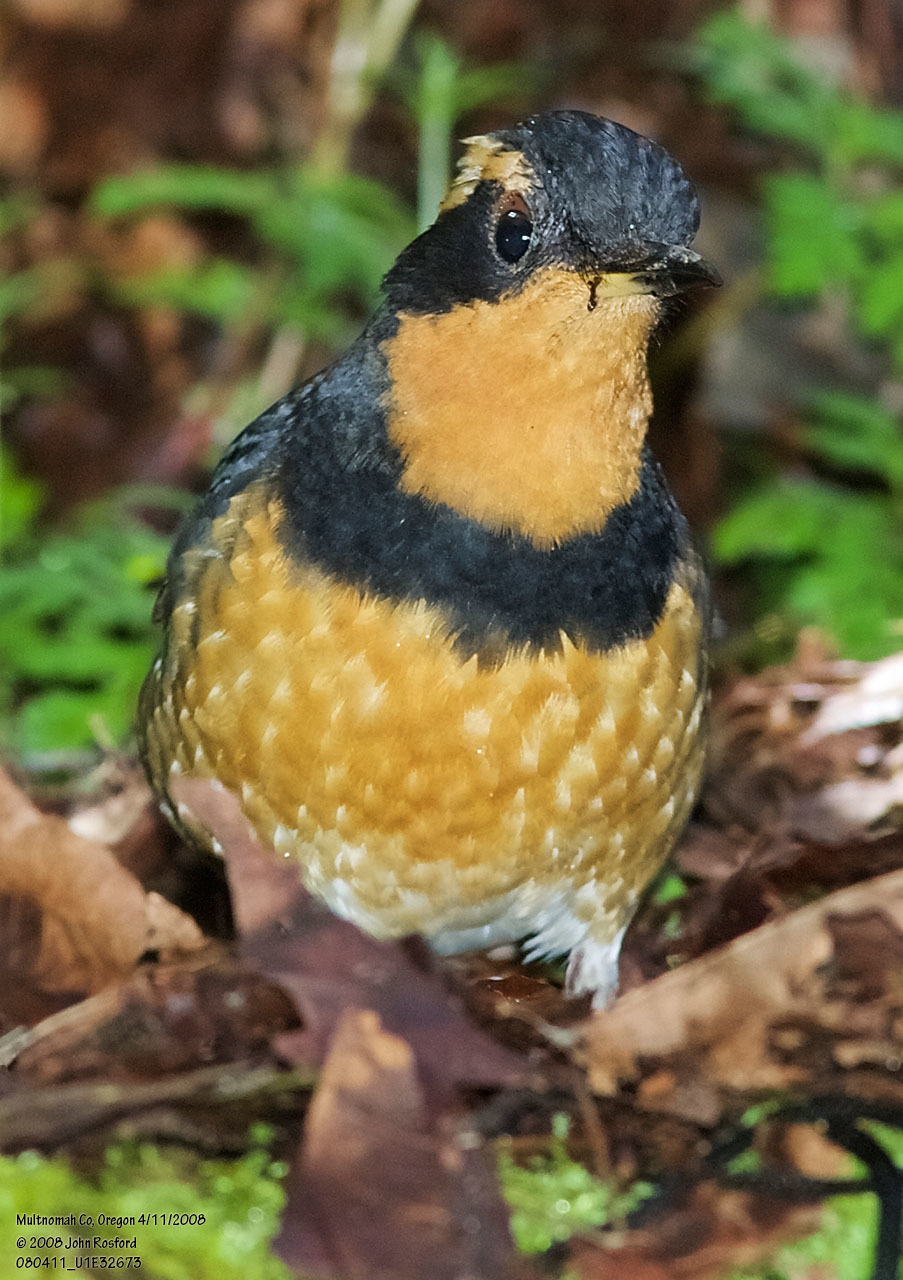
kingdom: Animalia
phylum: Chordata
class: Aves
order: Passeriformes
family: Turdidae
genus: Ixoreus
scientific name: Ixoreus naevius
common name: Varied thrush
